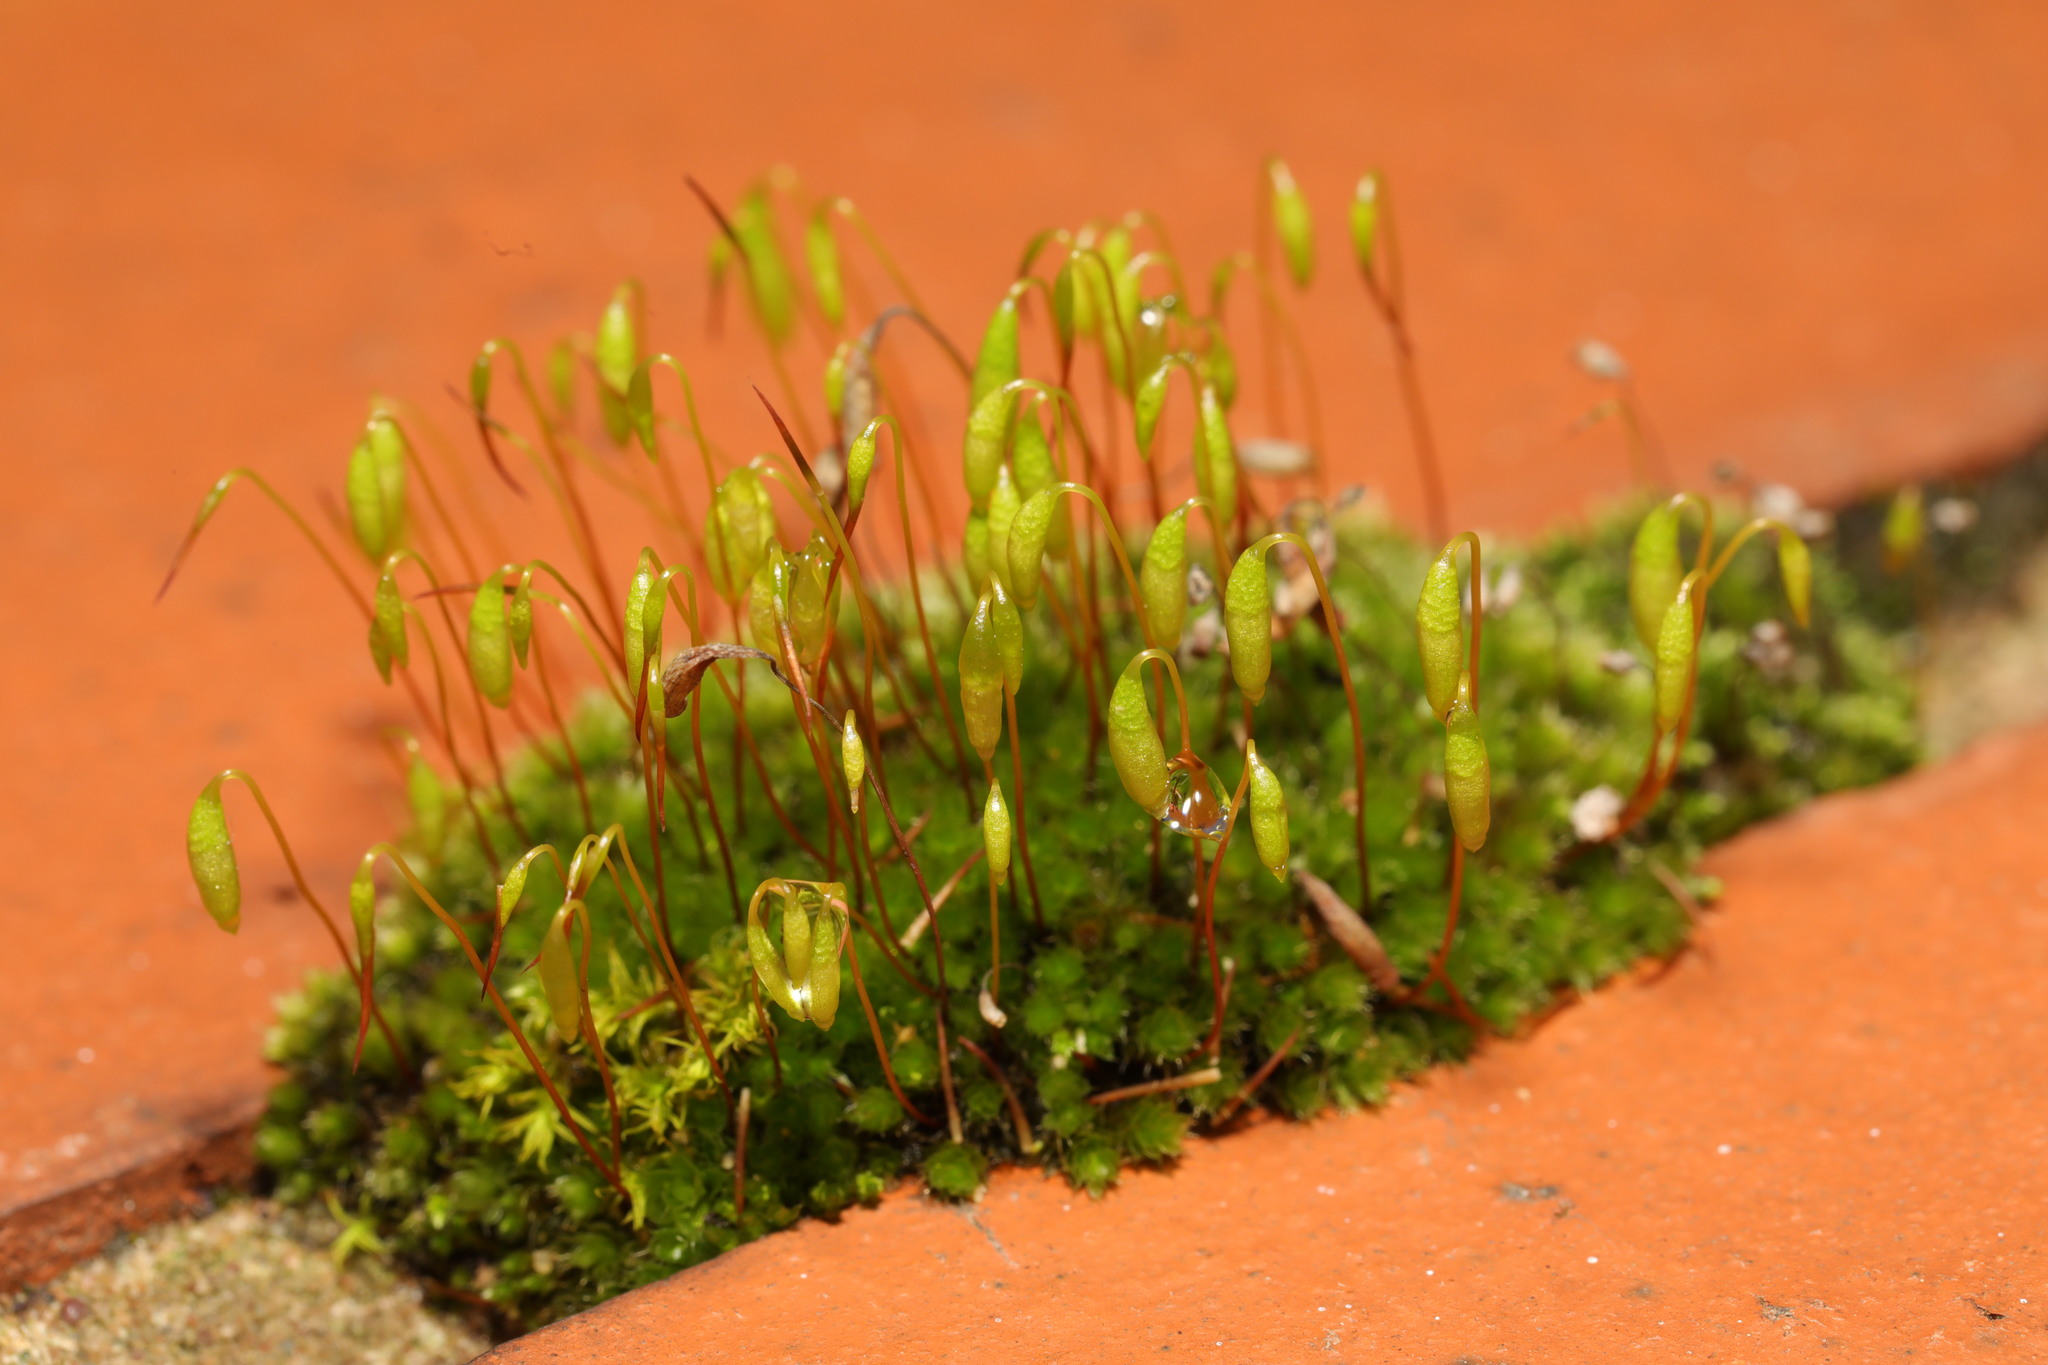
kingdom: Plantae
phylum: Bryophyta
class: Bryopsida
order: Bryales
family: Bryaceae
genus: Rosulabryum
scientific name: Rosulabryum capillare
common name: Capillary thread-moss
